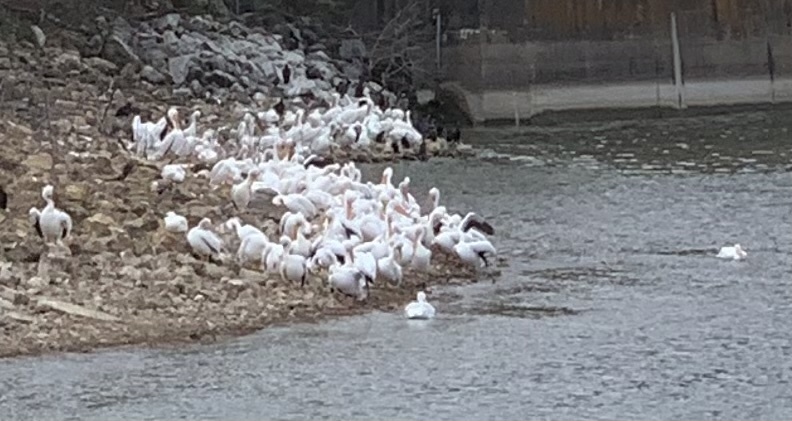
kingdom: Animalia
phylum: Chordata
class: Aves
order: Pelecaniformes
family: Pelecanidae
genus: Pelecanus
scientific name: Pelecanus erythrorhynchos
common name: American white pelican
